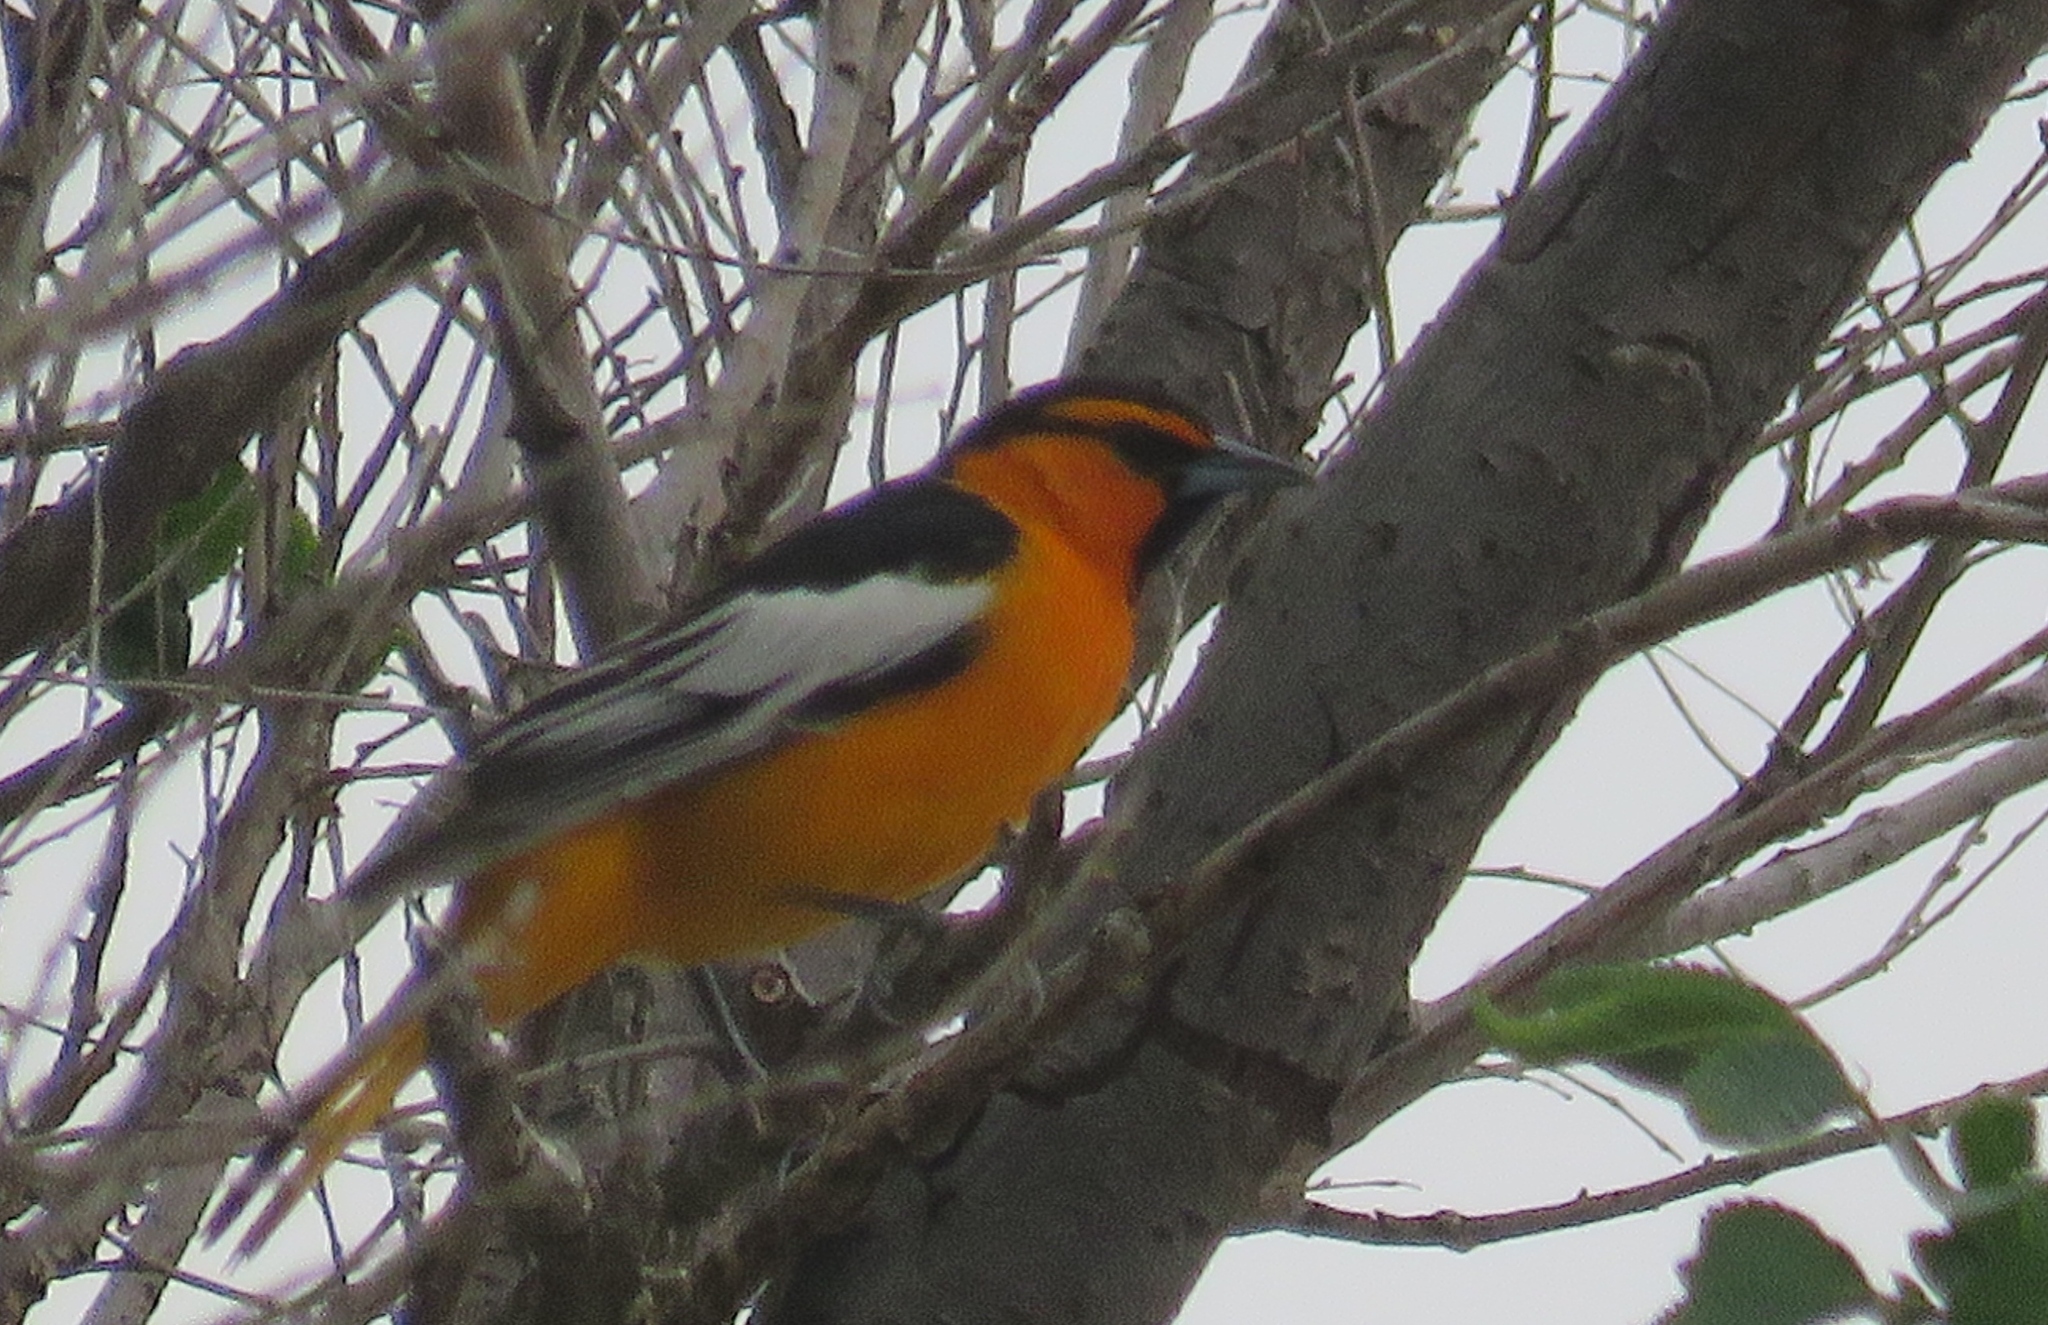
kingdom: Animalia
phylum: Chordata
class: Aves
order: Passeriformes
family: Icteridae
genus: Icterus
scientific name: Icterus bullockii
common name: Bullock's oriole
